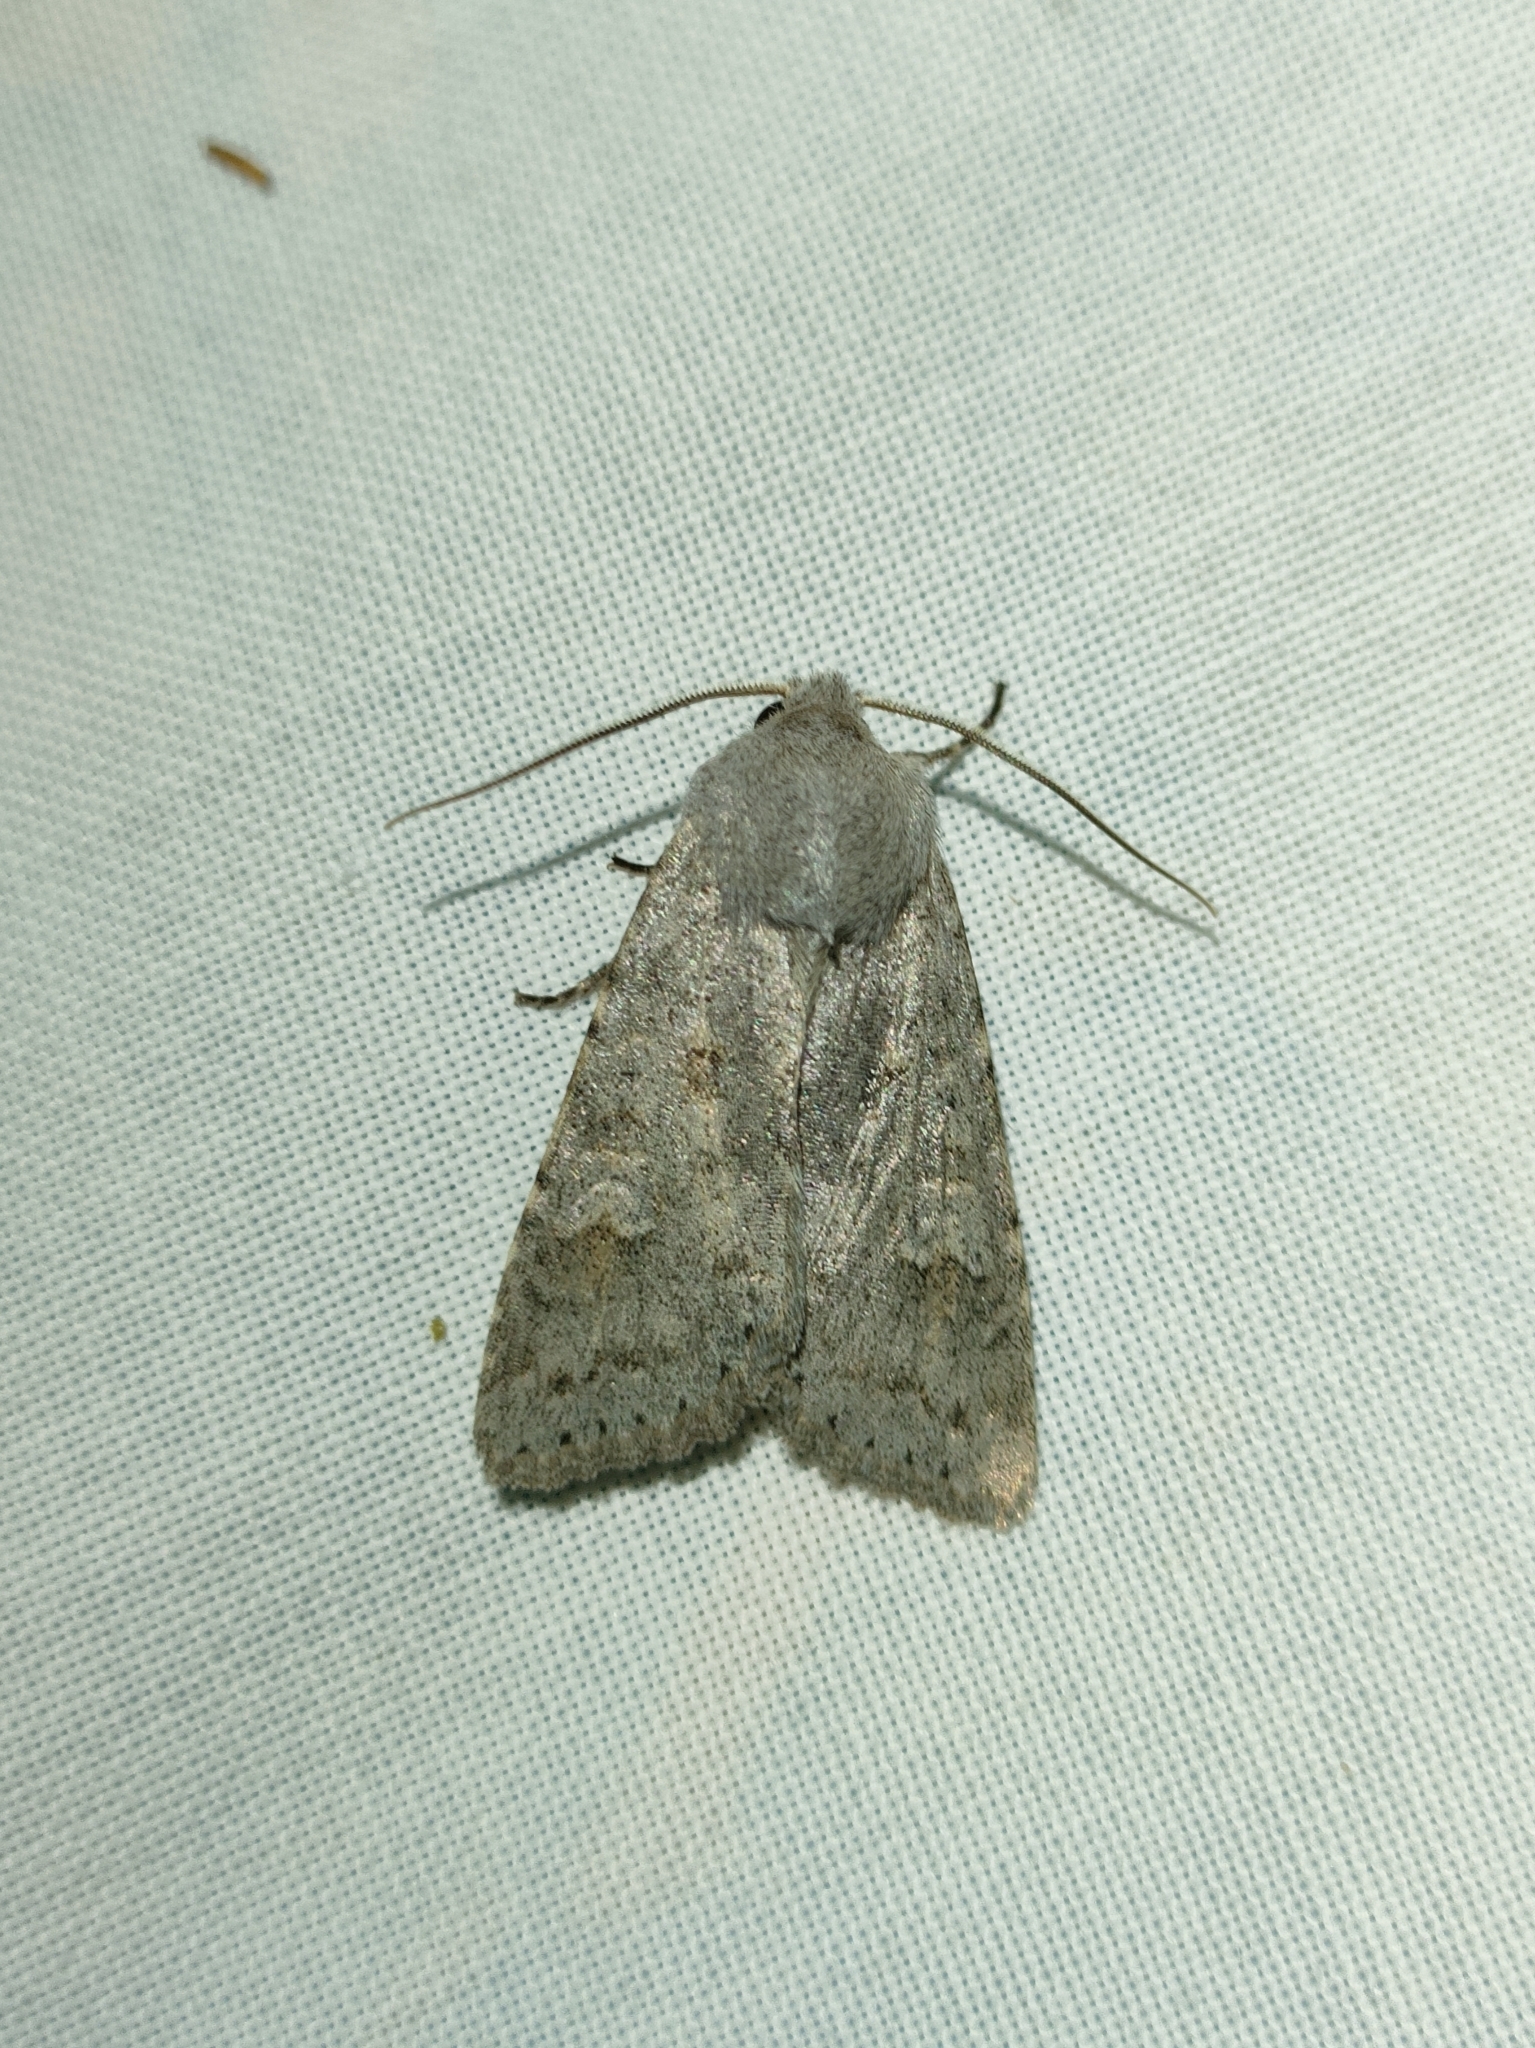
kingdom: Animalia
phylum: Arthropoda
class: Insecta
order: Lepidoptera
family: Noctuidae
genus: Ammoconia
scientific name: Ammoconia senex
